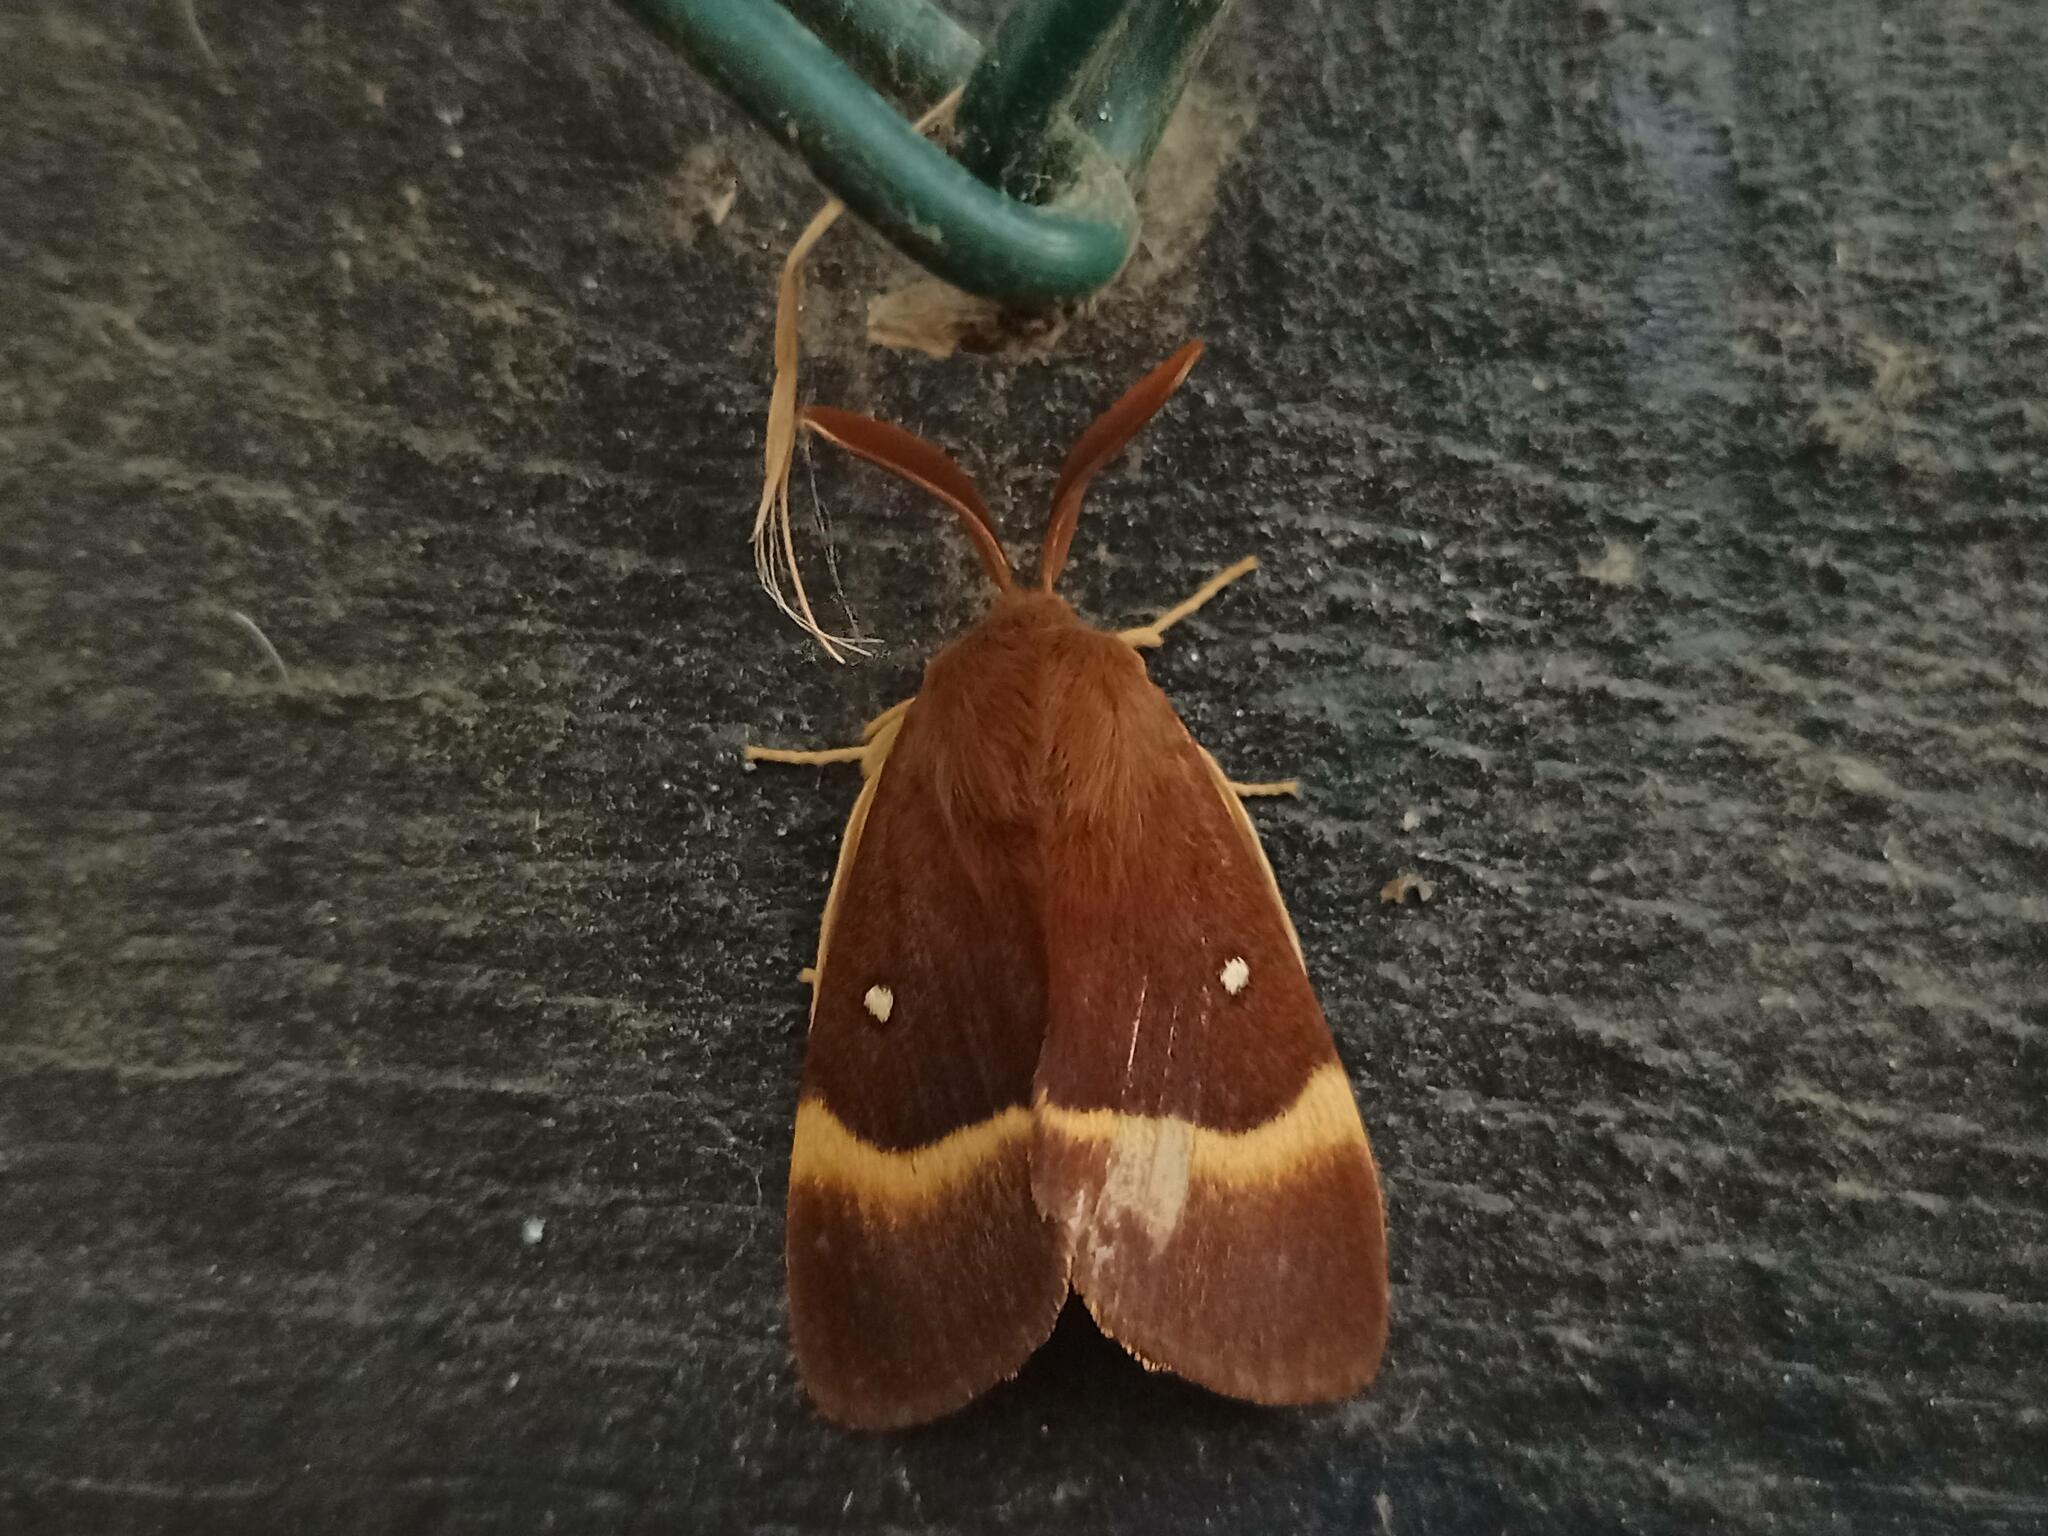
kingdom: Animalia
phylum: Arthropoda
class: Insecta
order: Lepidoptera
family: Lasiocampidae
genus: Lasiocampa
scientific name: Lasiocampa quercus
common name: Oak eggar
